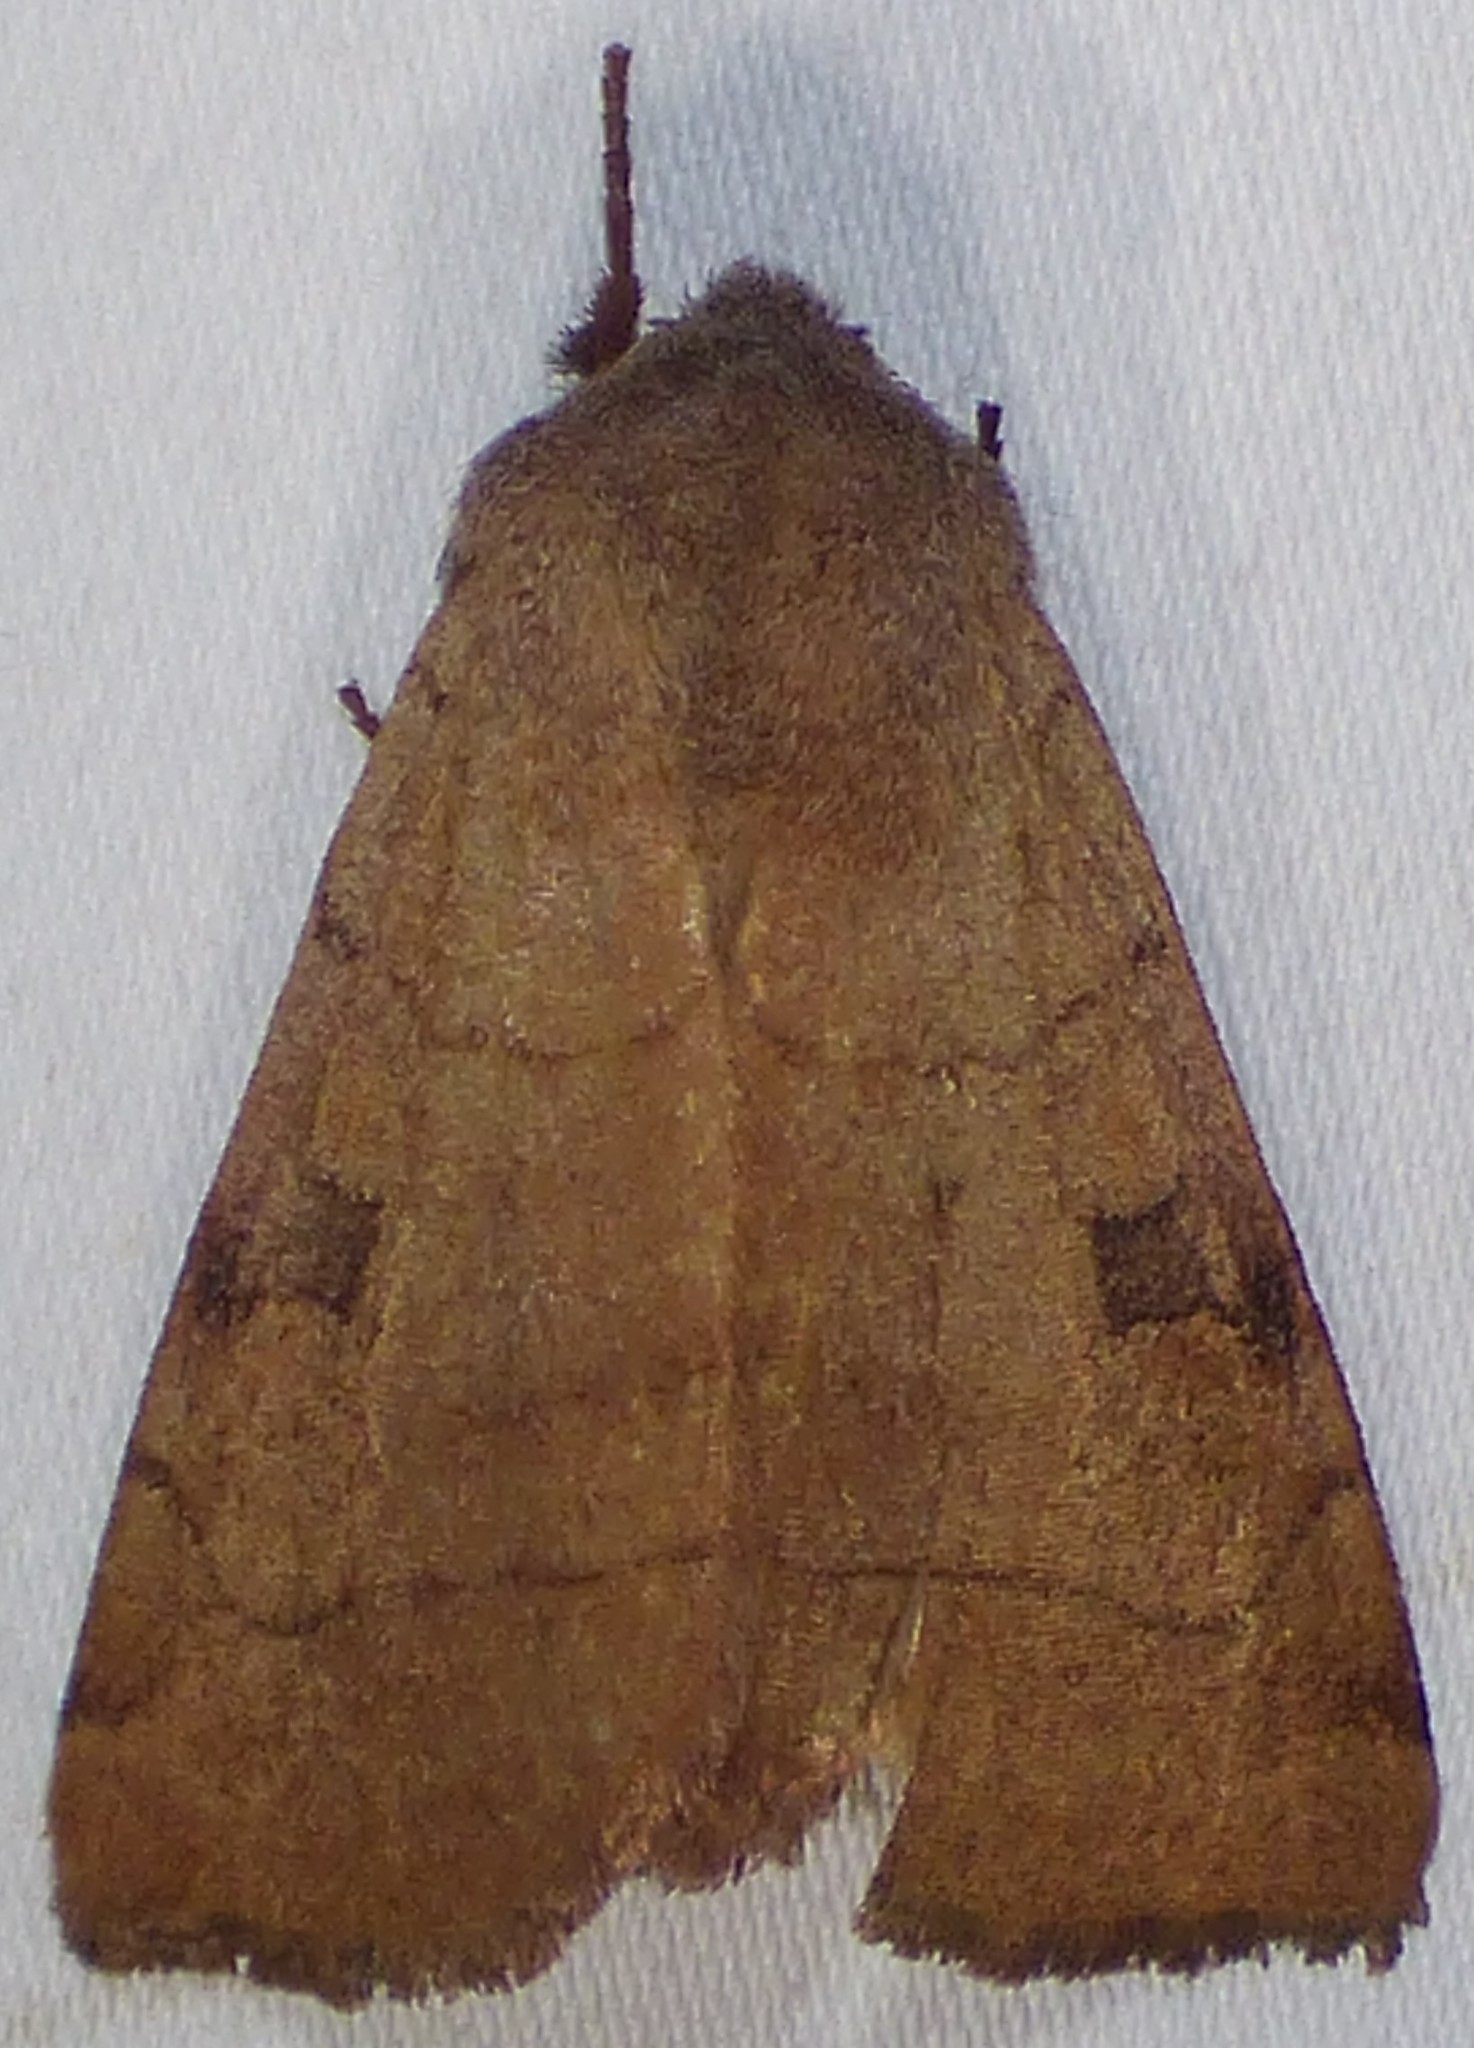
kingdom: Animalia
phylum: Arthropoda
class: Insecta
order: Lepidoptera
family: Noctuidae
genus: Choephora
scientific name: Choephora fungorum
